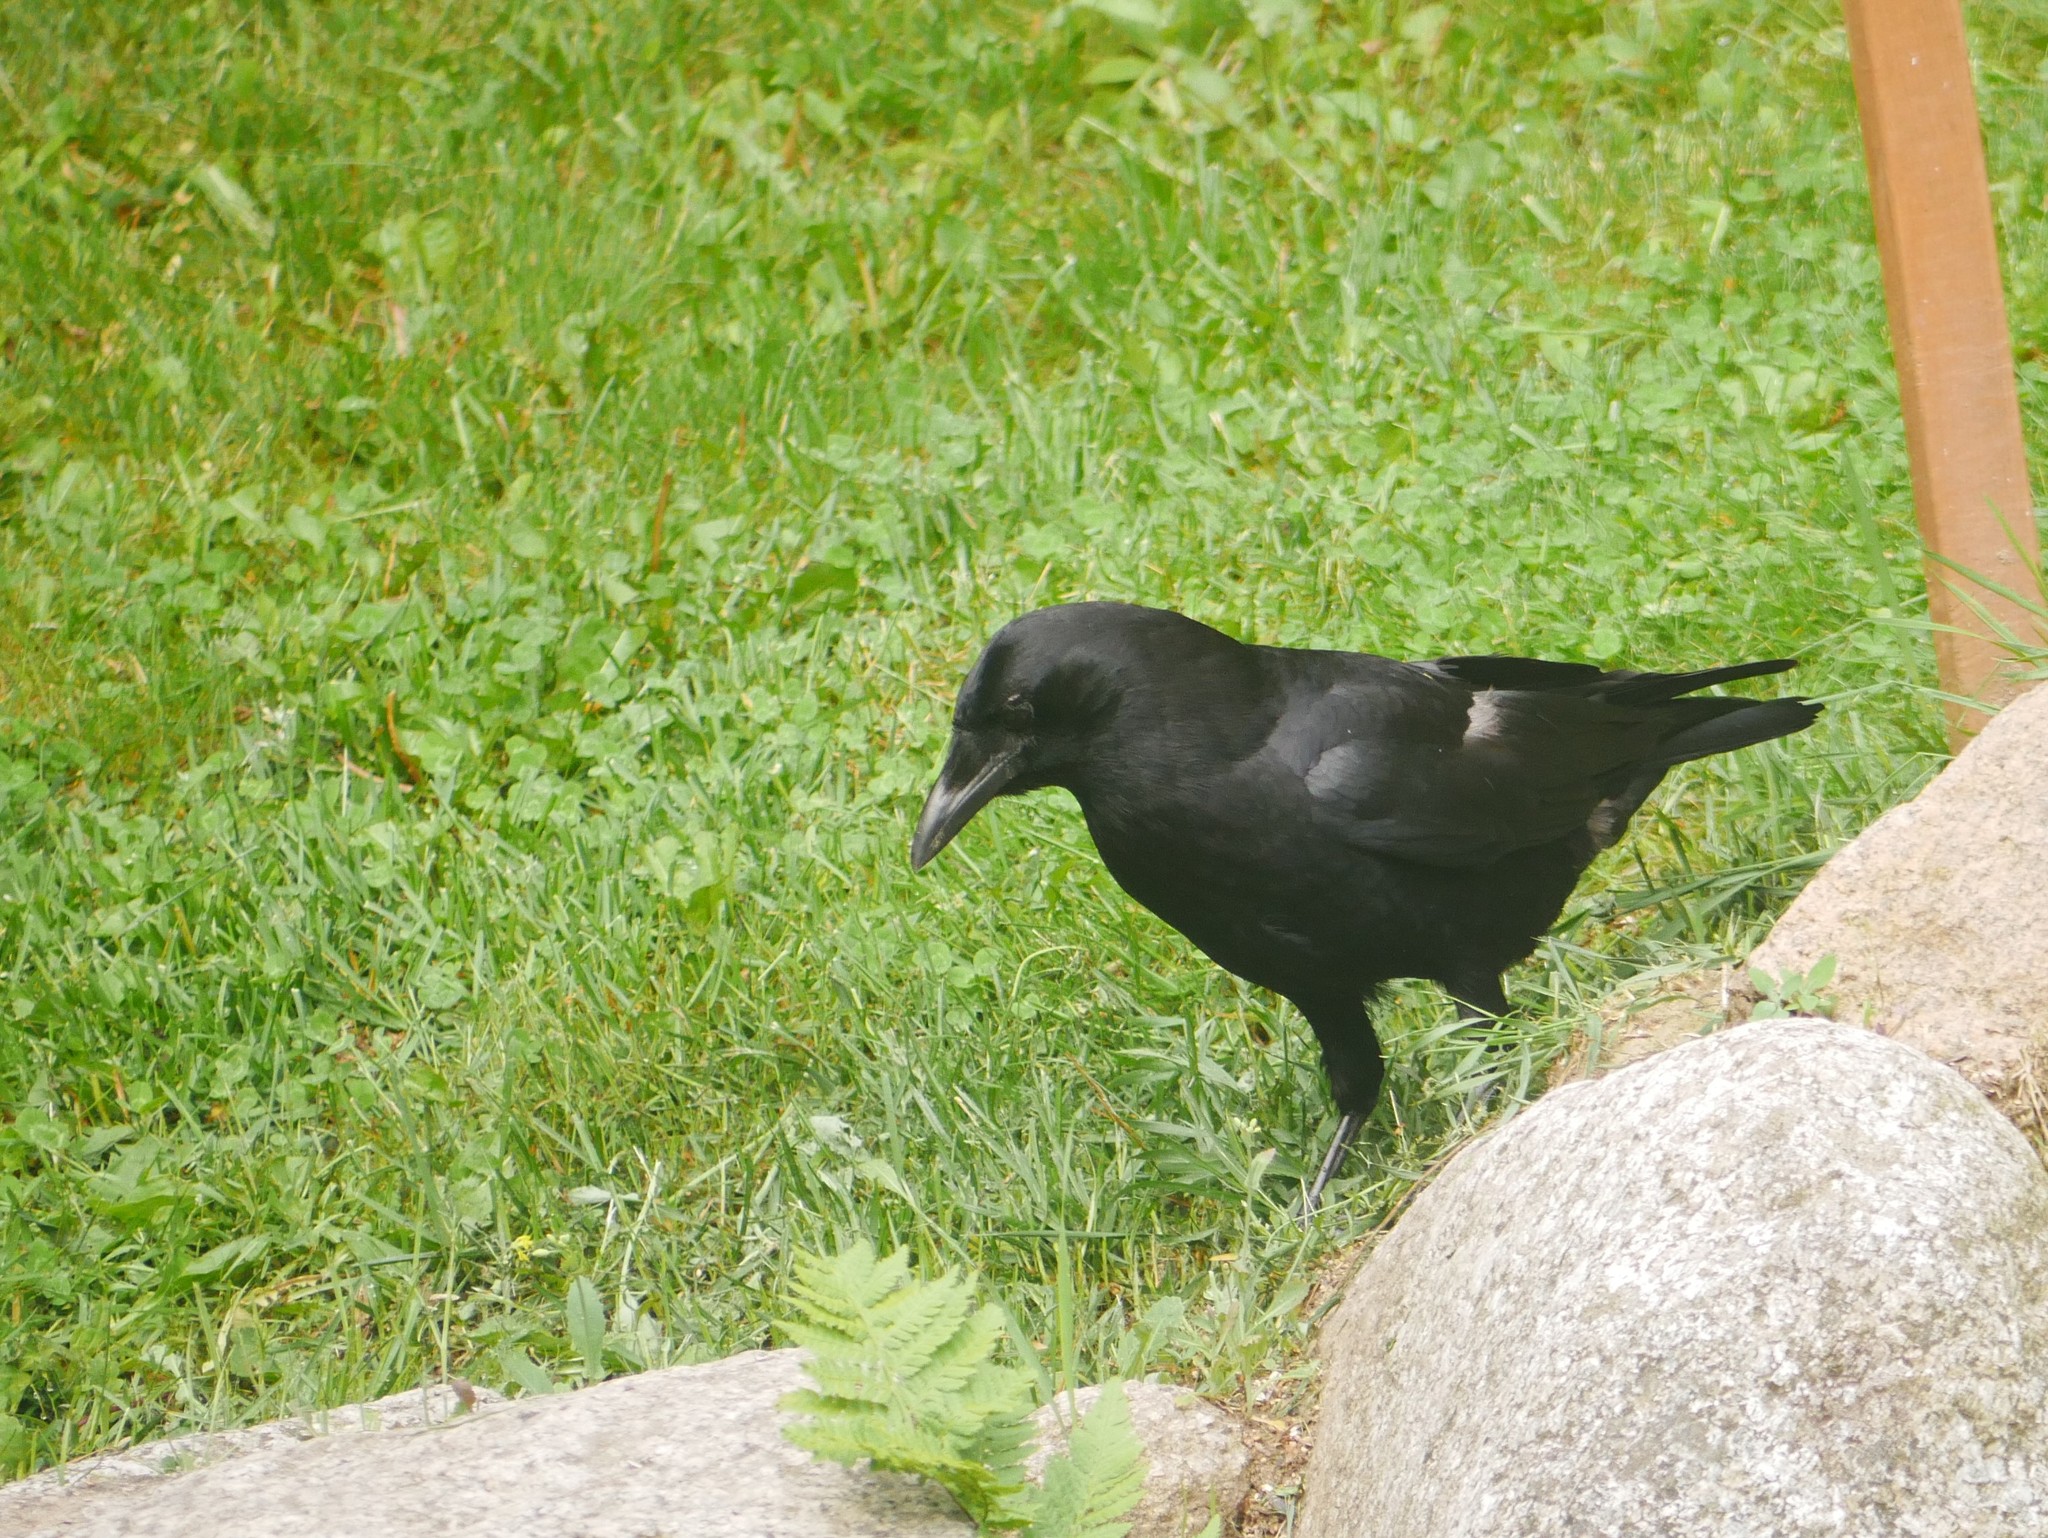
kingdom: Animalia
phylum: Chordata
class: Aves
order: Passeriformes
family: Corvidae
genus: Corvus
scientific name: Corvus brachyrhynchos
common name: American crow
